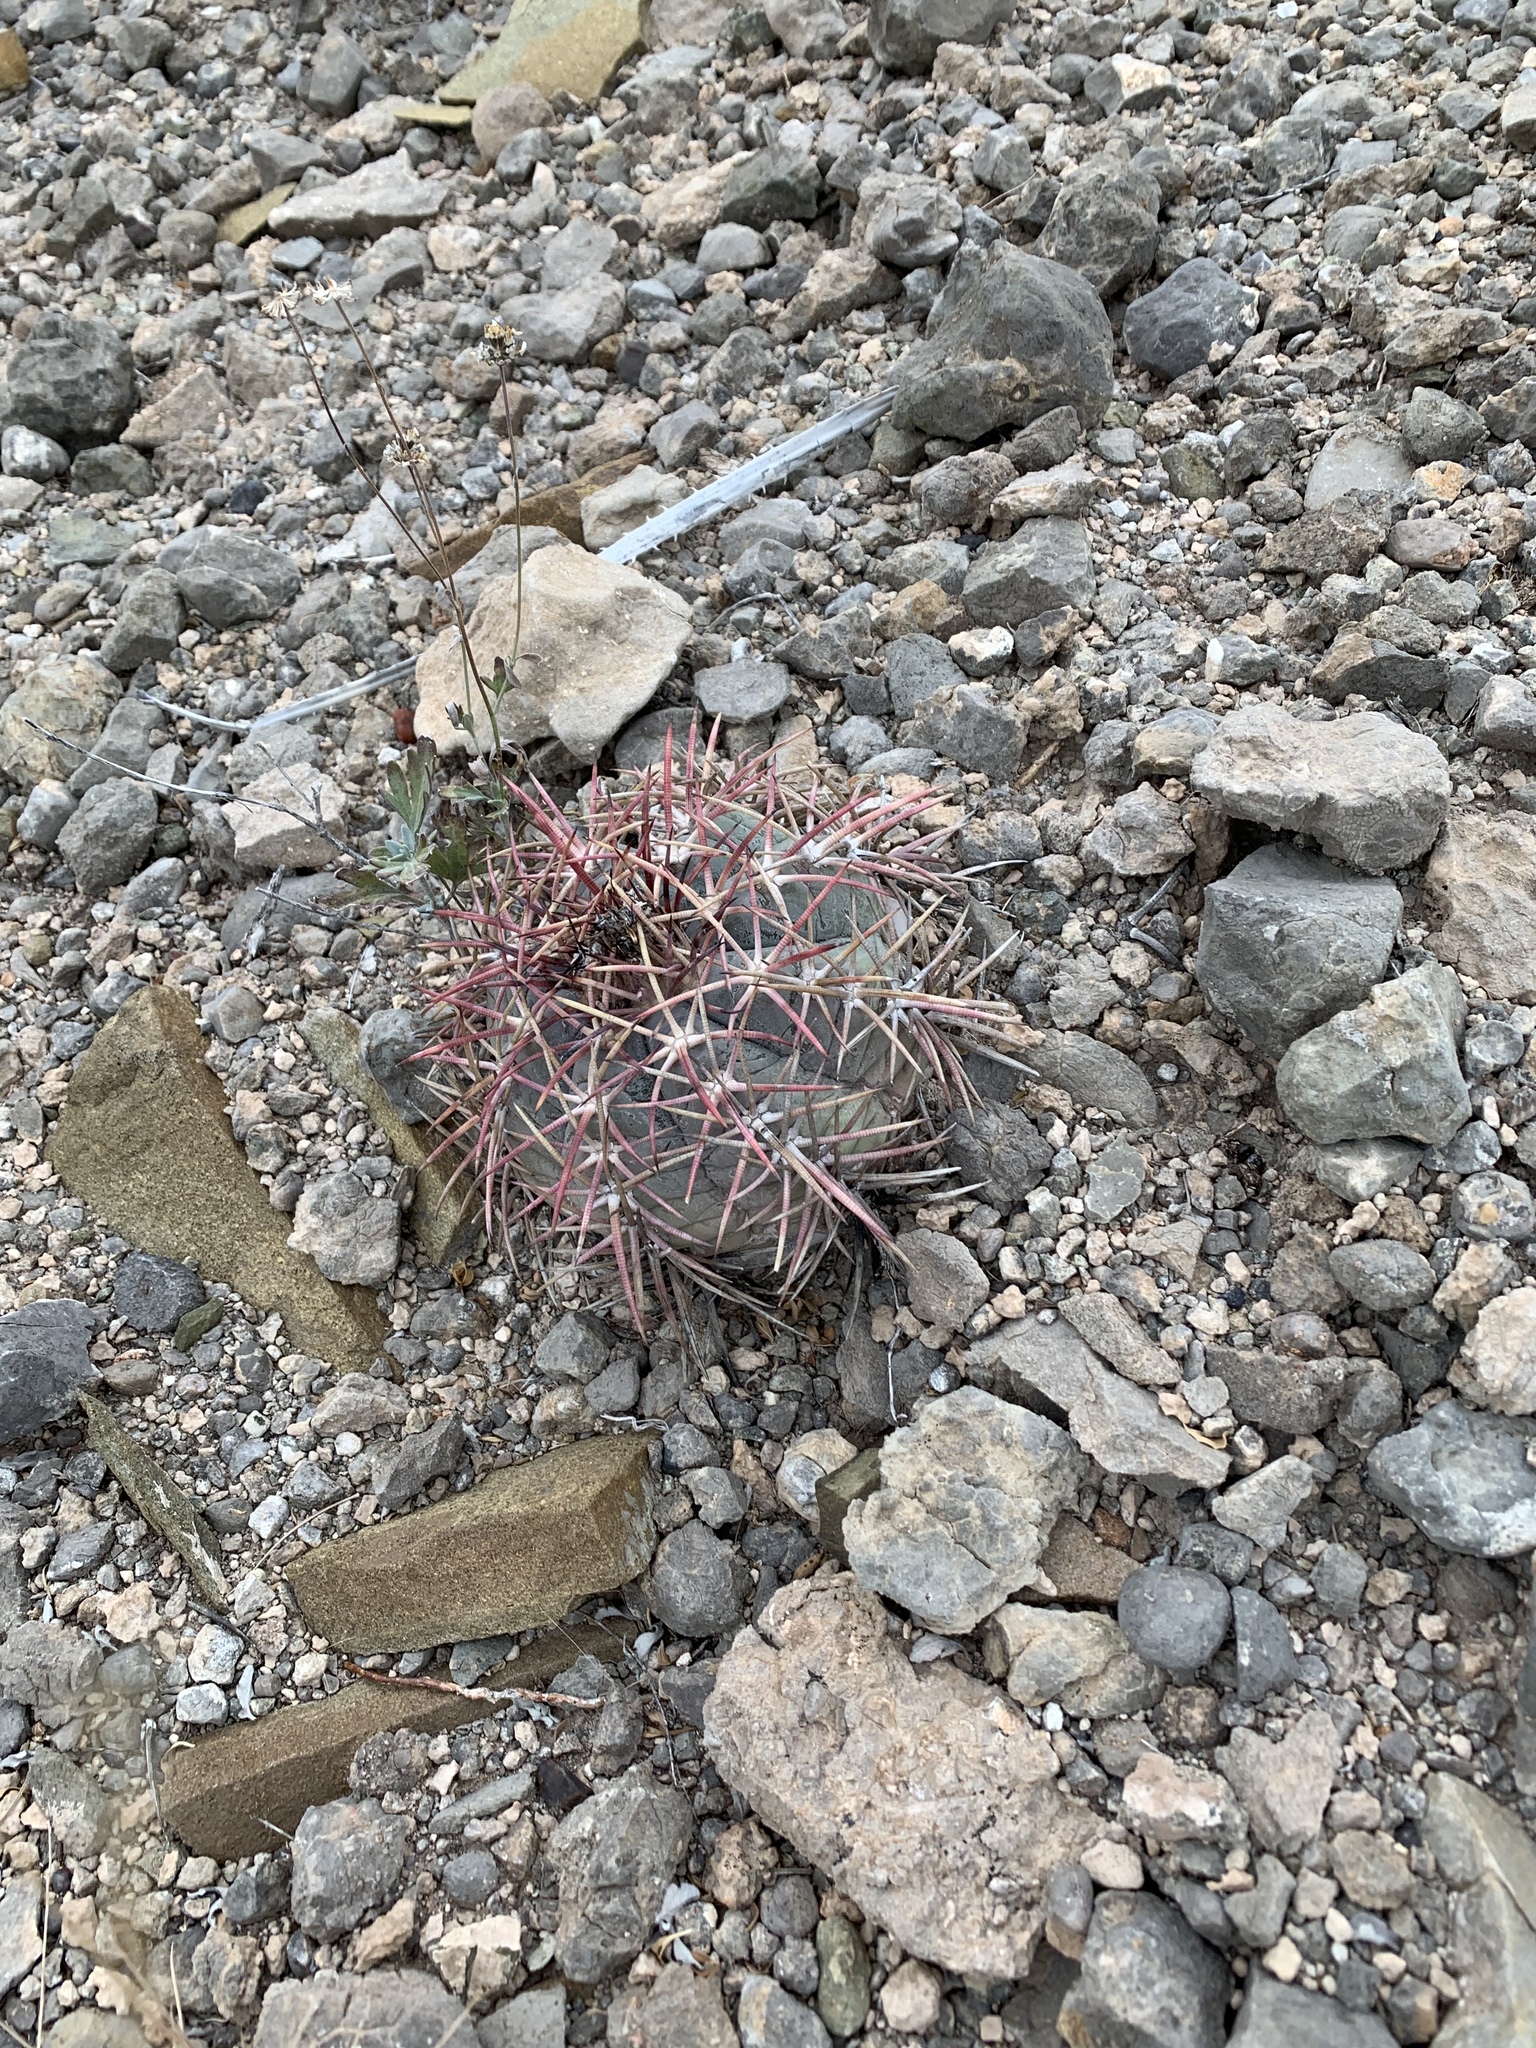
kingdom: Plantae
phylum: Tracheophyta
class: Magnoliopsida
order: Caryophyllales
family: Cactaceae
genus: Echinocactus
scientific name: Echinocactus horizonthalonius
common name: Devilshead
